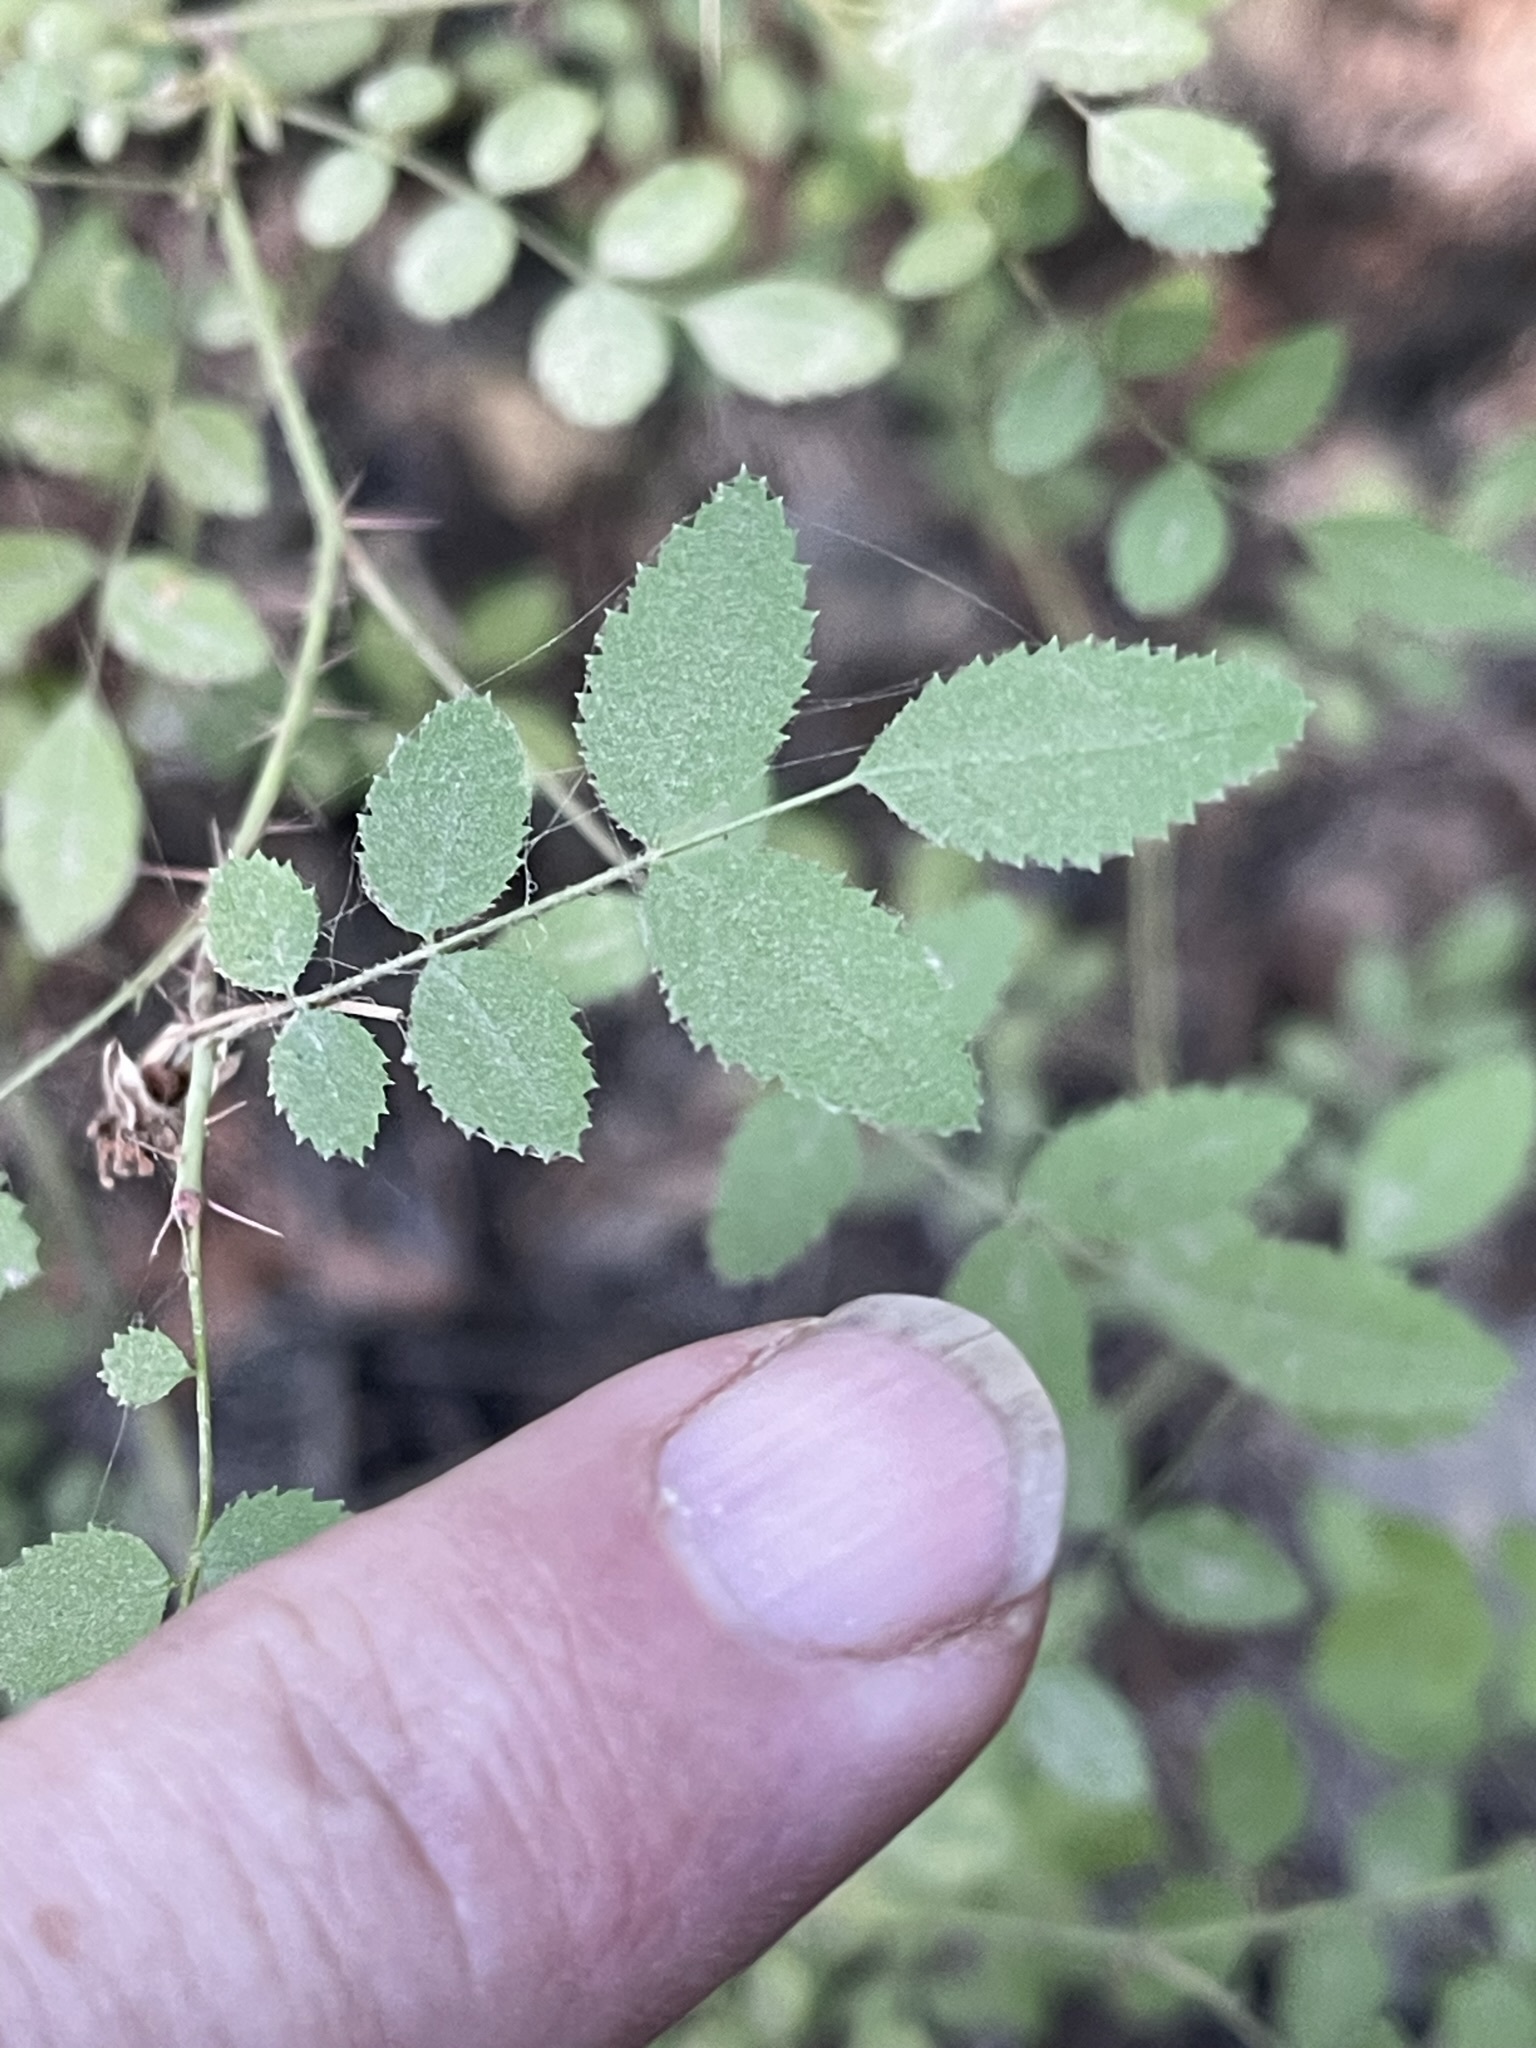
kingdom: Plantae
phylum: Tracheophyta
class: Magnoliopsida
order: Rosales
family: Rosaceae
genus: Rosa
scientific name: Rosa gymnocarpa
